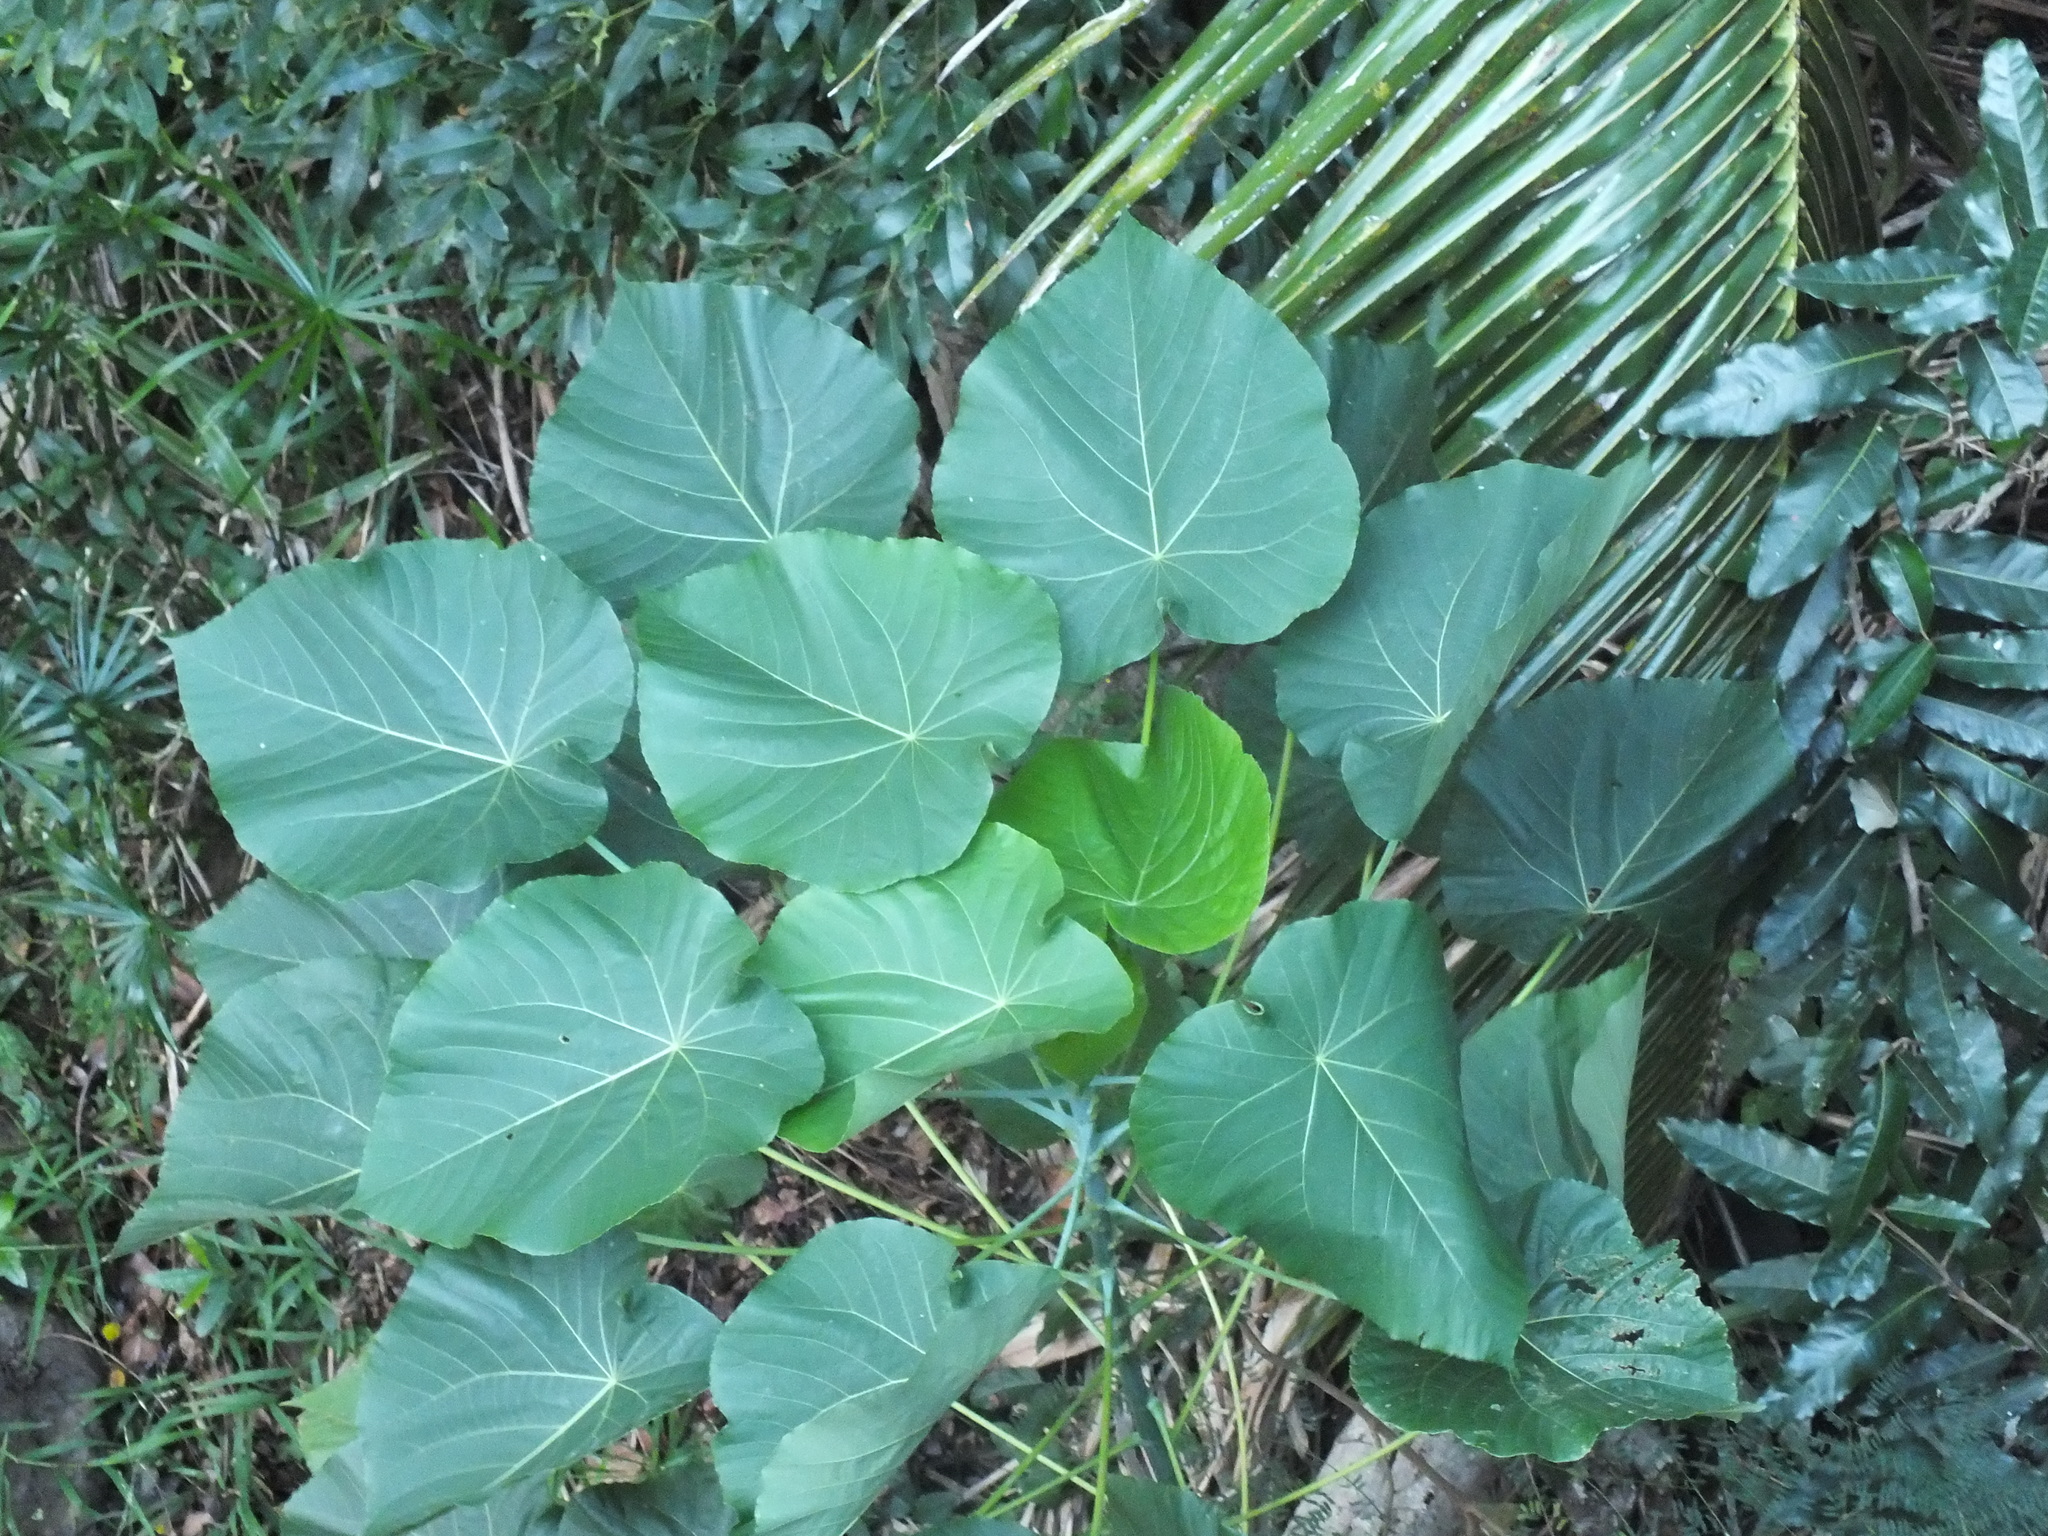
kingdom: Plantae
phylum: Tracheophyta
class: Magnoliopsida
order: Malpighiales
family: Euphorbiaceae
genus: Macaranga
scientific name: Macaranga tanarius
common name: Parasol leaf tree
